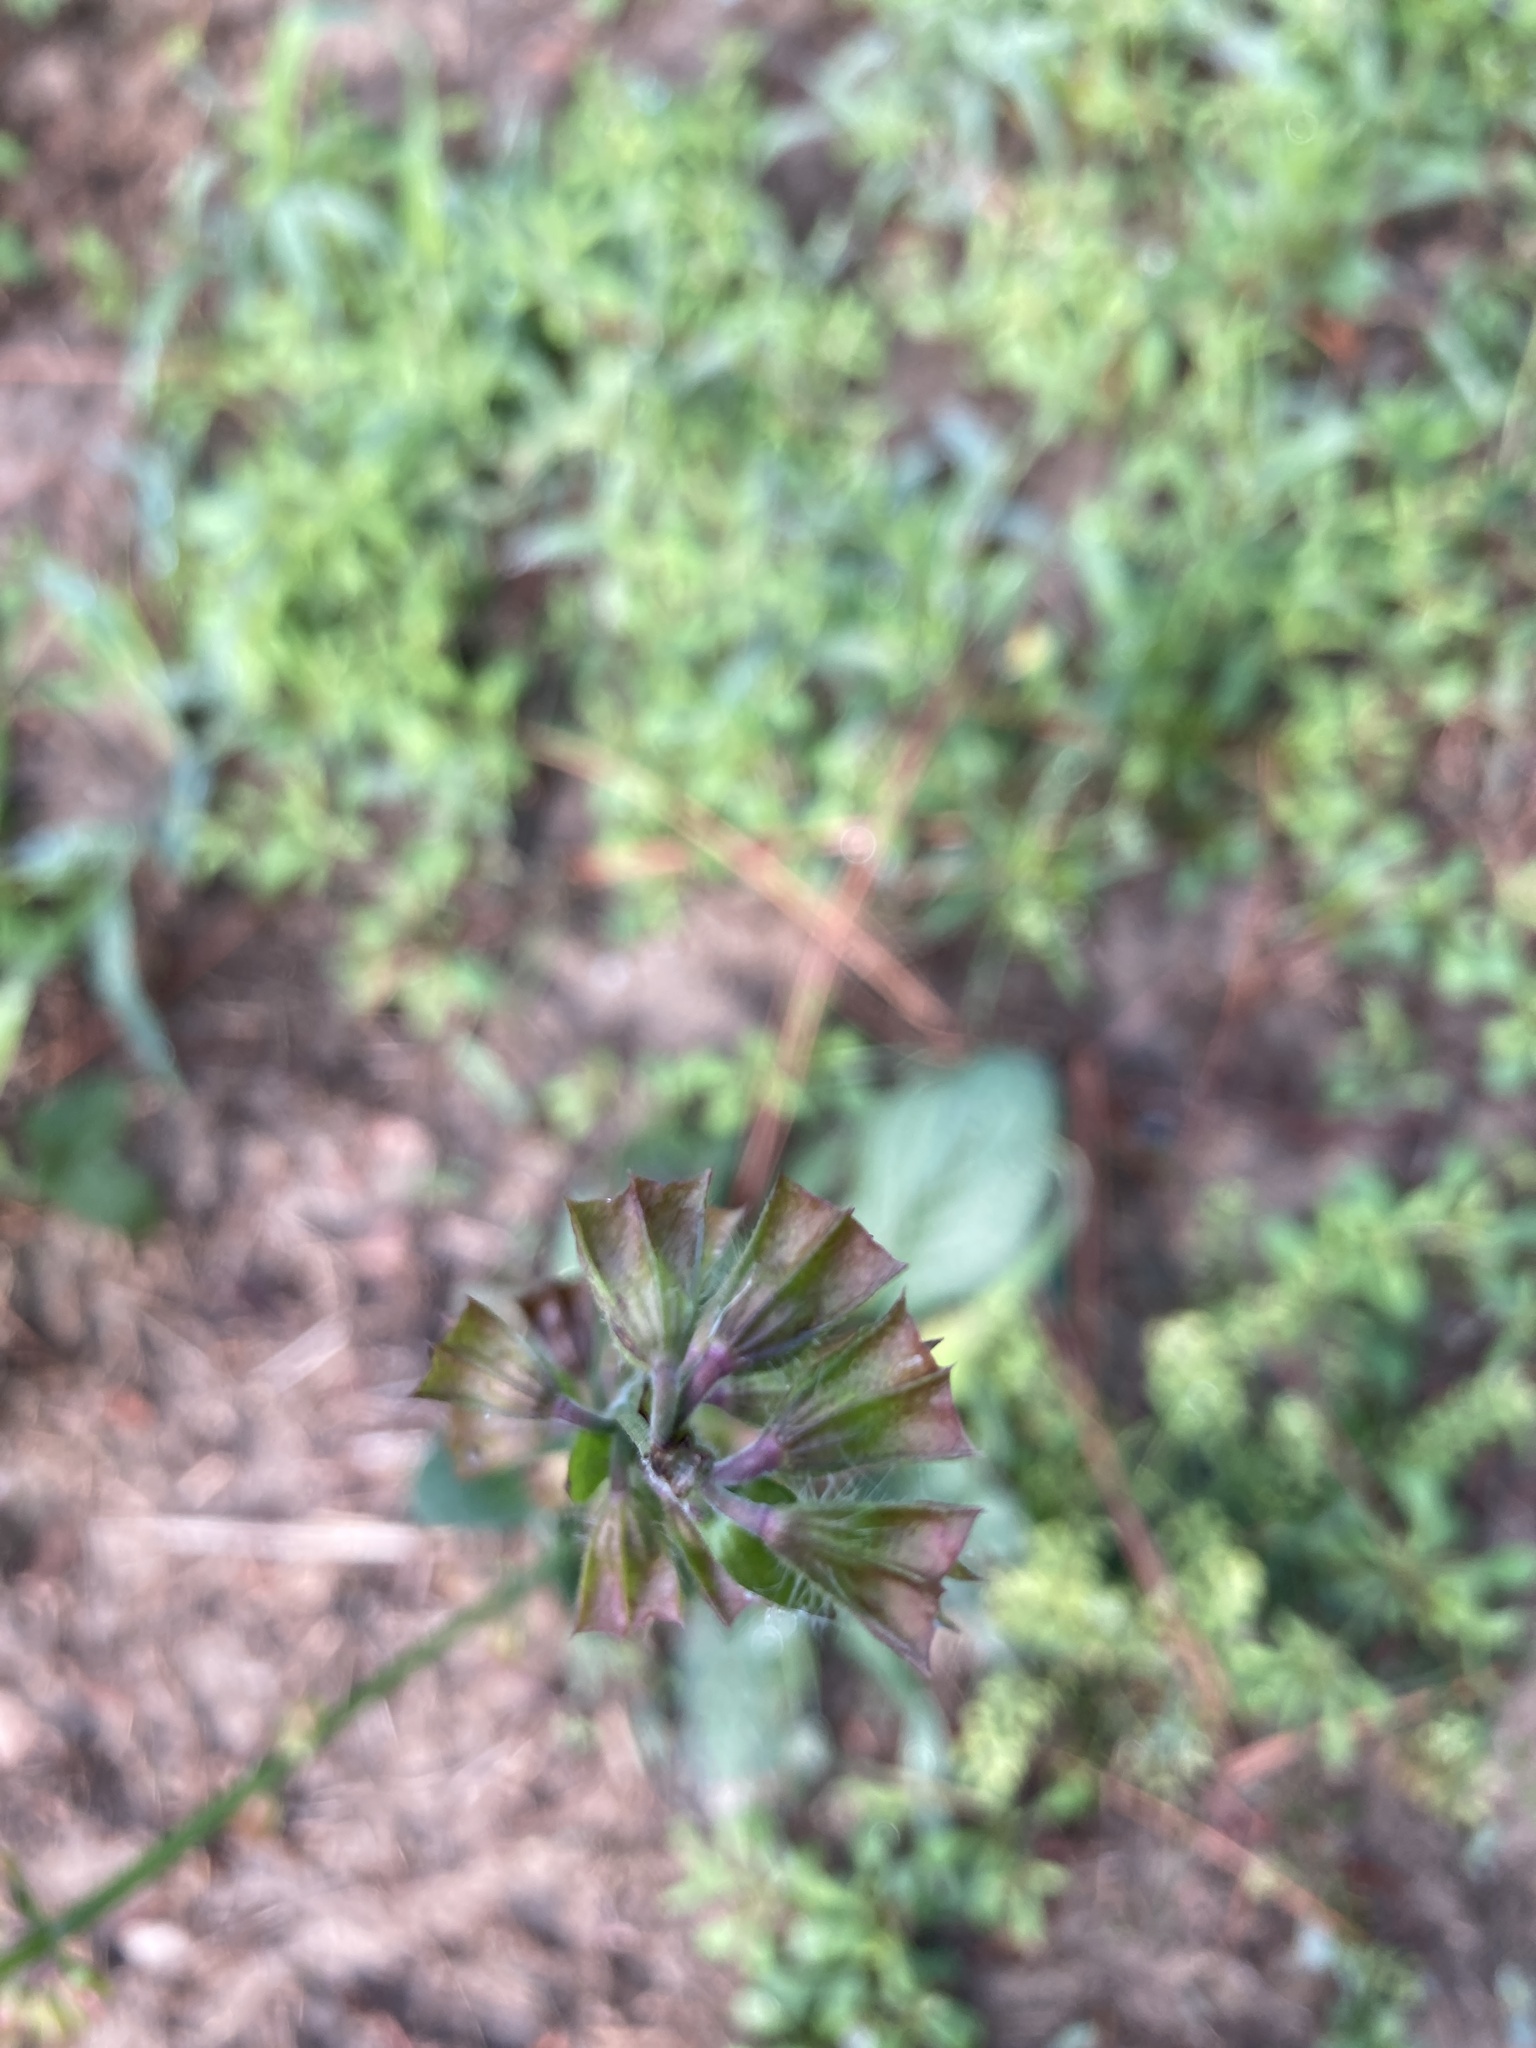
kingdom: Plantae
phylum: Tracheophyta
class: Magnoliopsida
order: Lamiales
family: Lamiaceae
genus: Salvia
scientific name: Salvia lyrata
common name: Cancerweed
